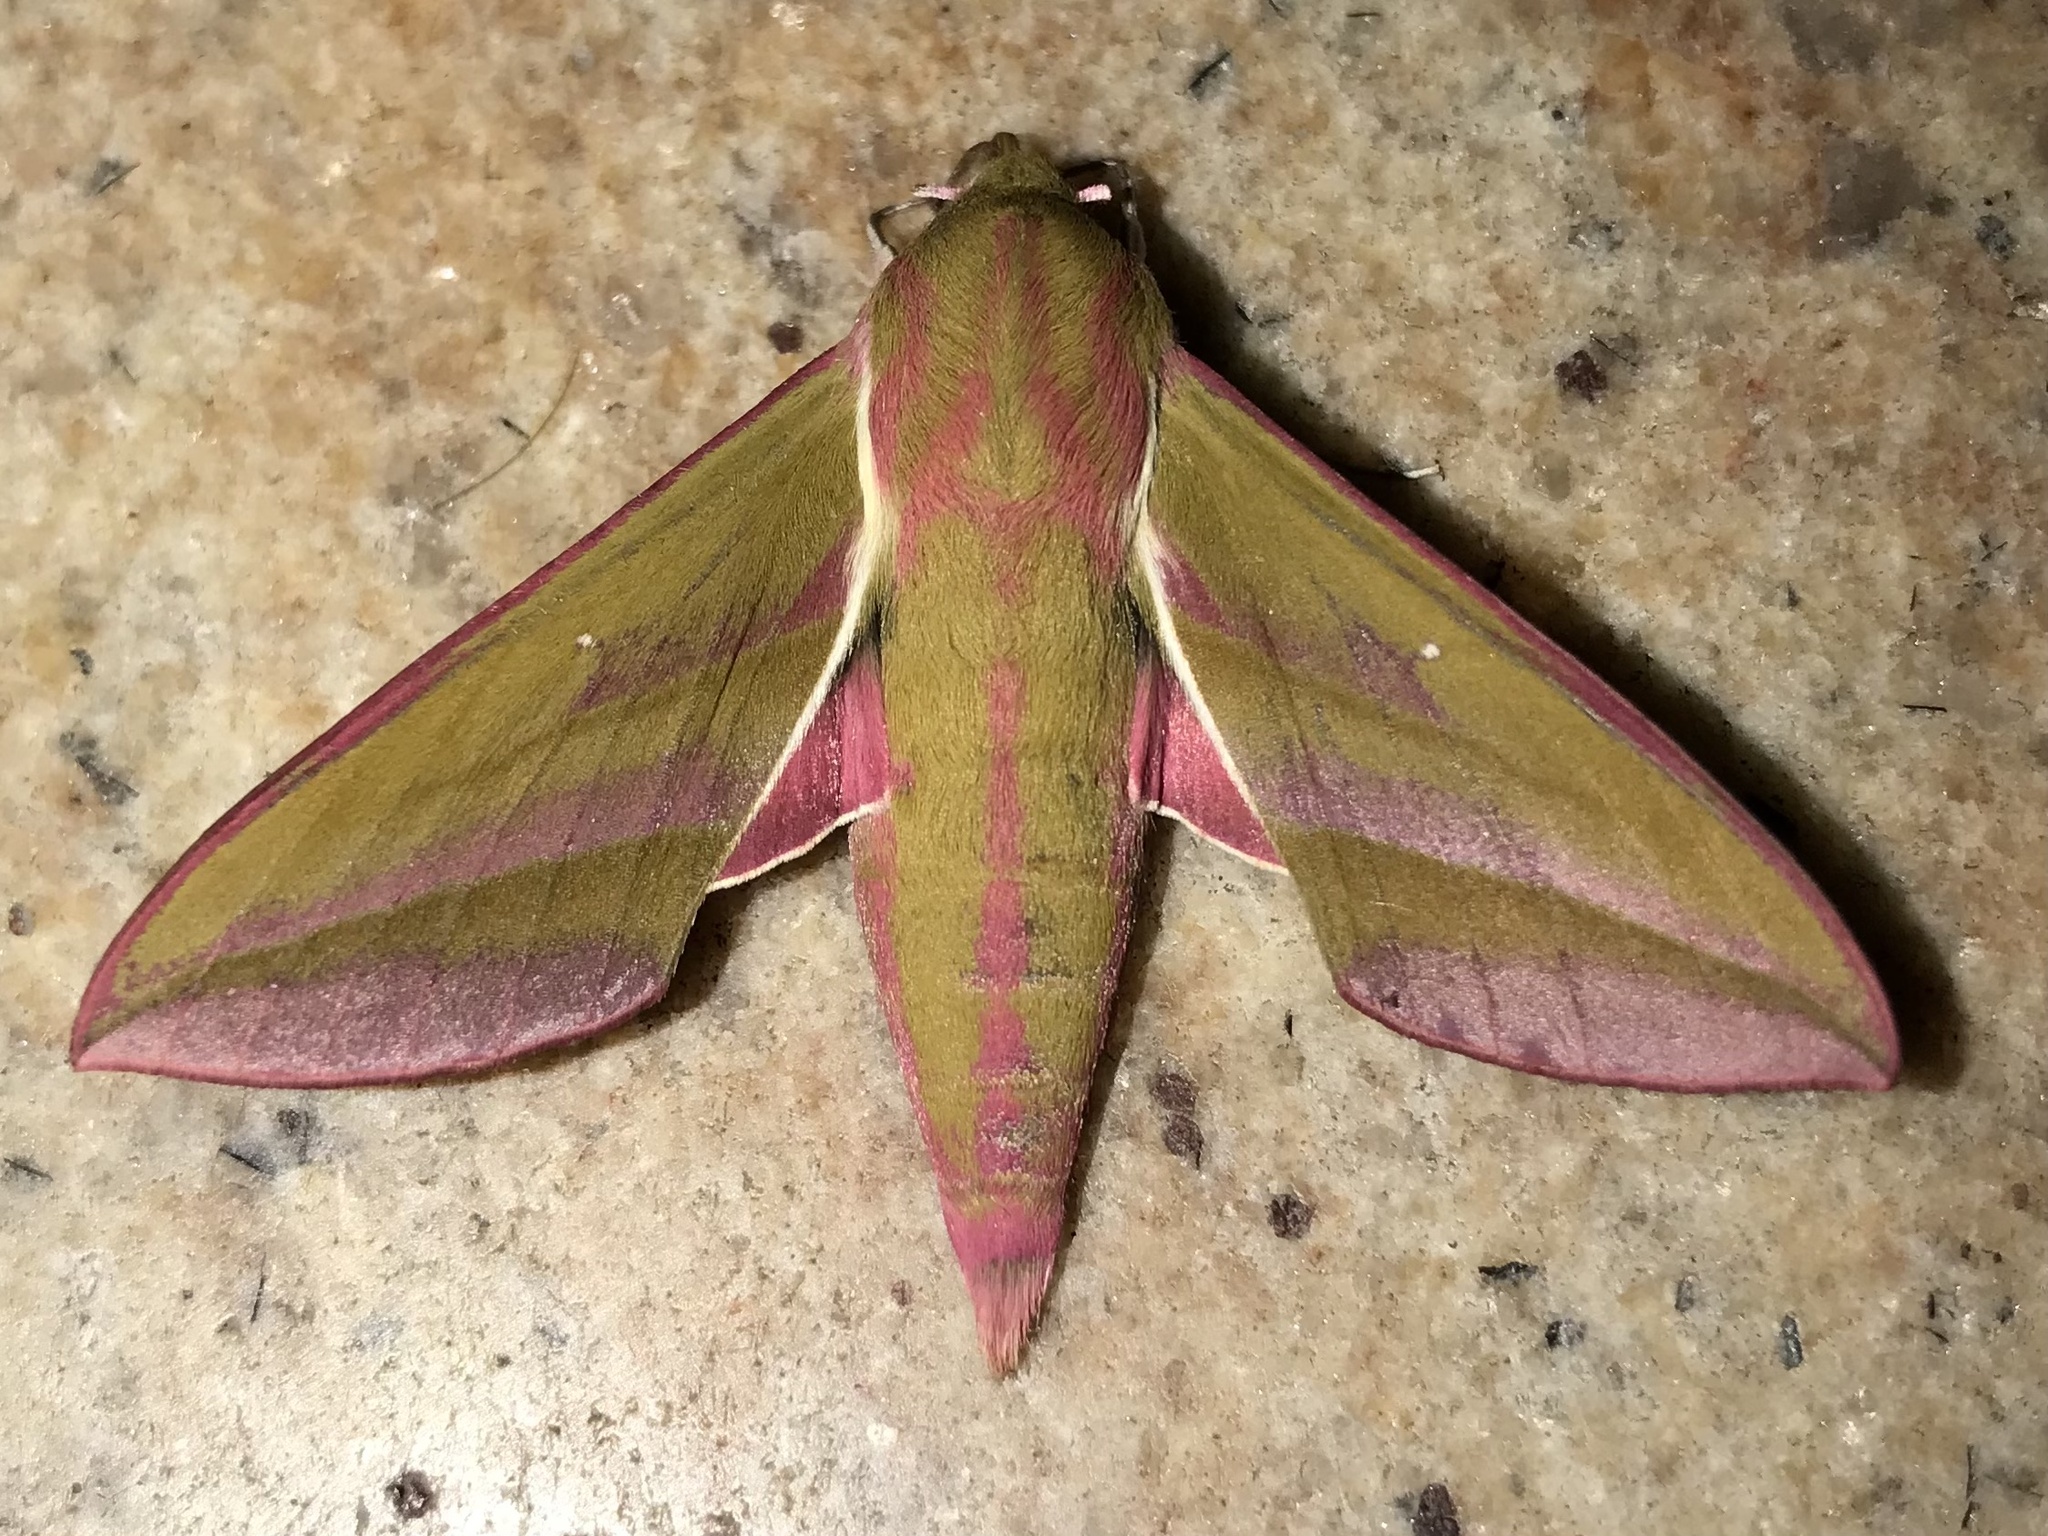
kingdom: Animalia
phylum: Arthropoda
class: Insecta
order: Lepidoptera
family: Sphingidae
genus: Deilephila
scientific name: Deilephila elpenor
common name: Elephant hawk-moth
